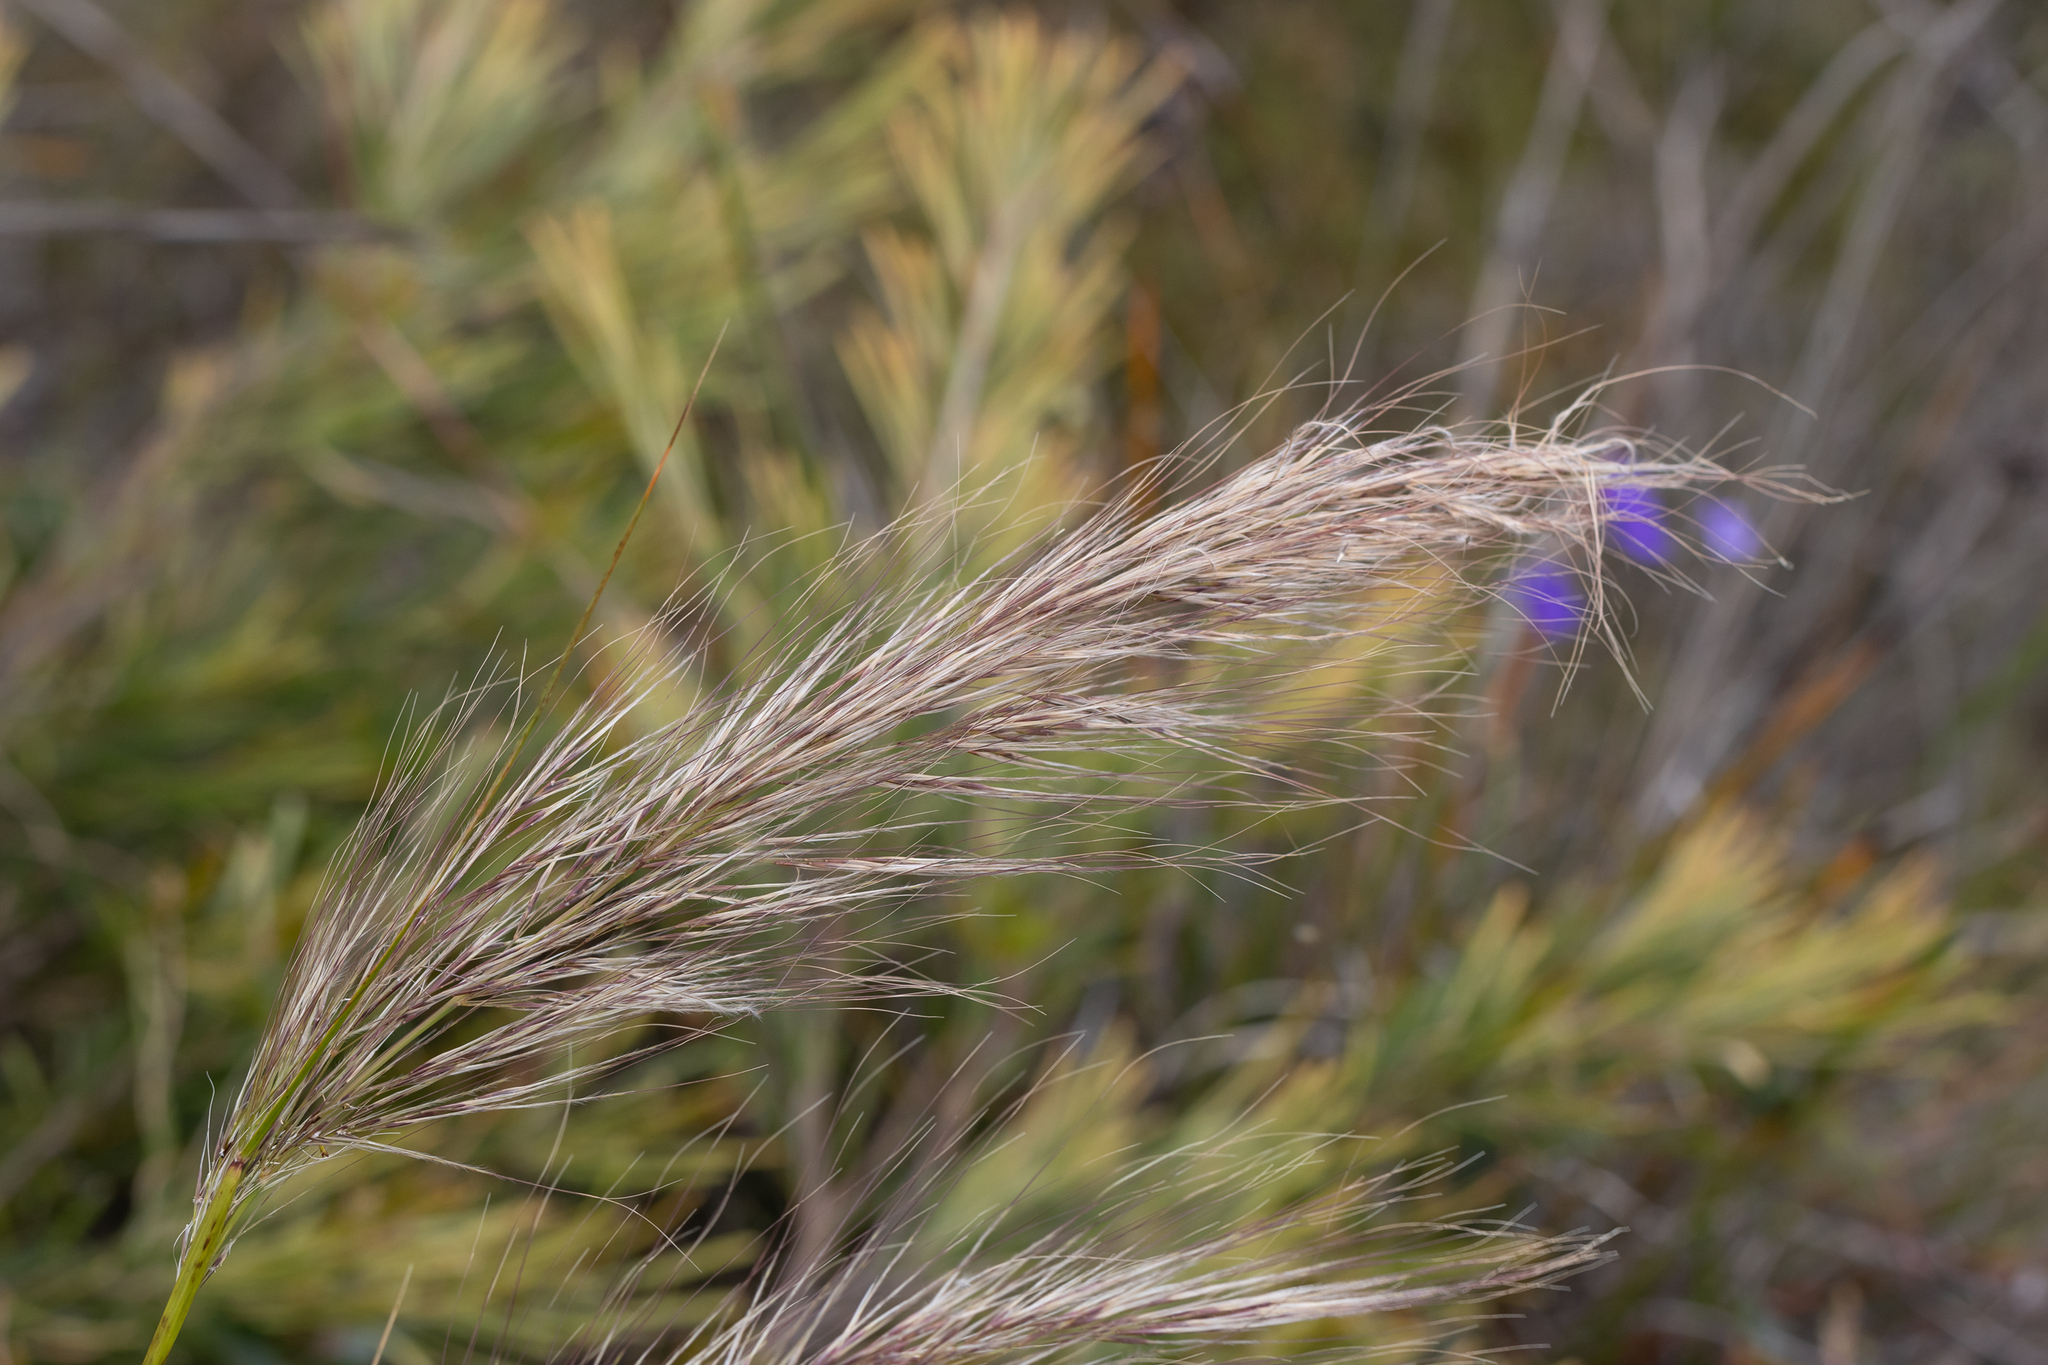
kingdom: Plantae
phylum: Tracheophyta
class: Liliopsida
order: Poales
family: Poaceae
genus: Austrostipa
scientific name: Austrostipa mollis
